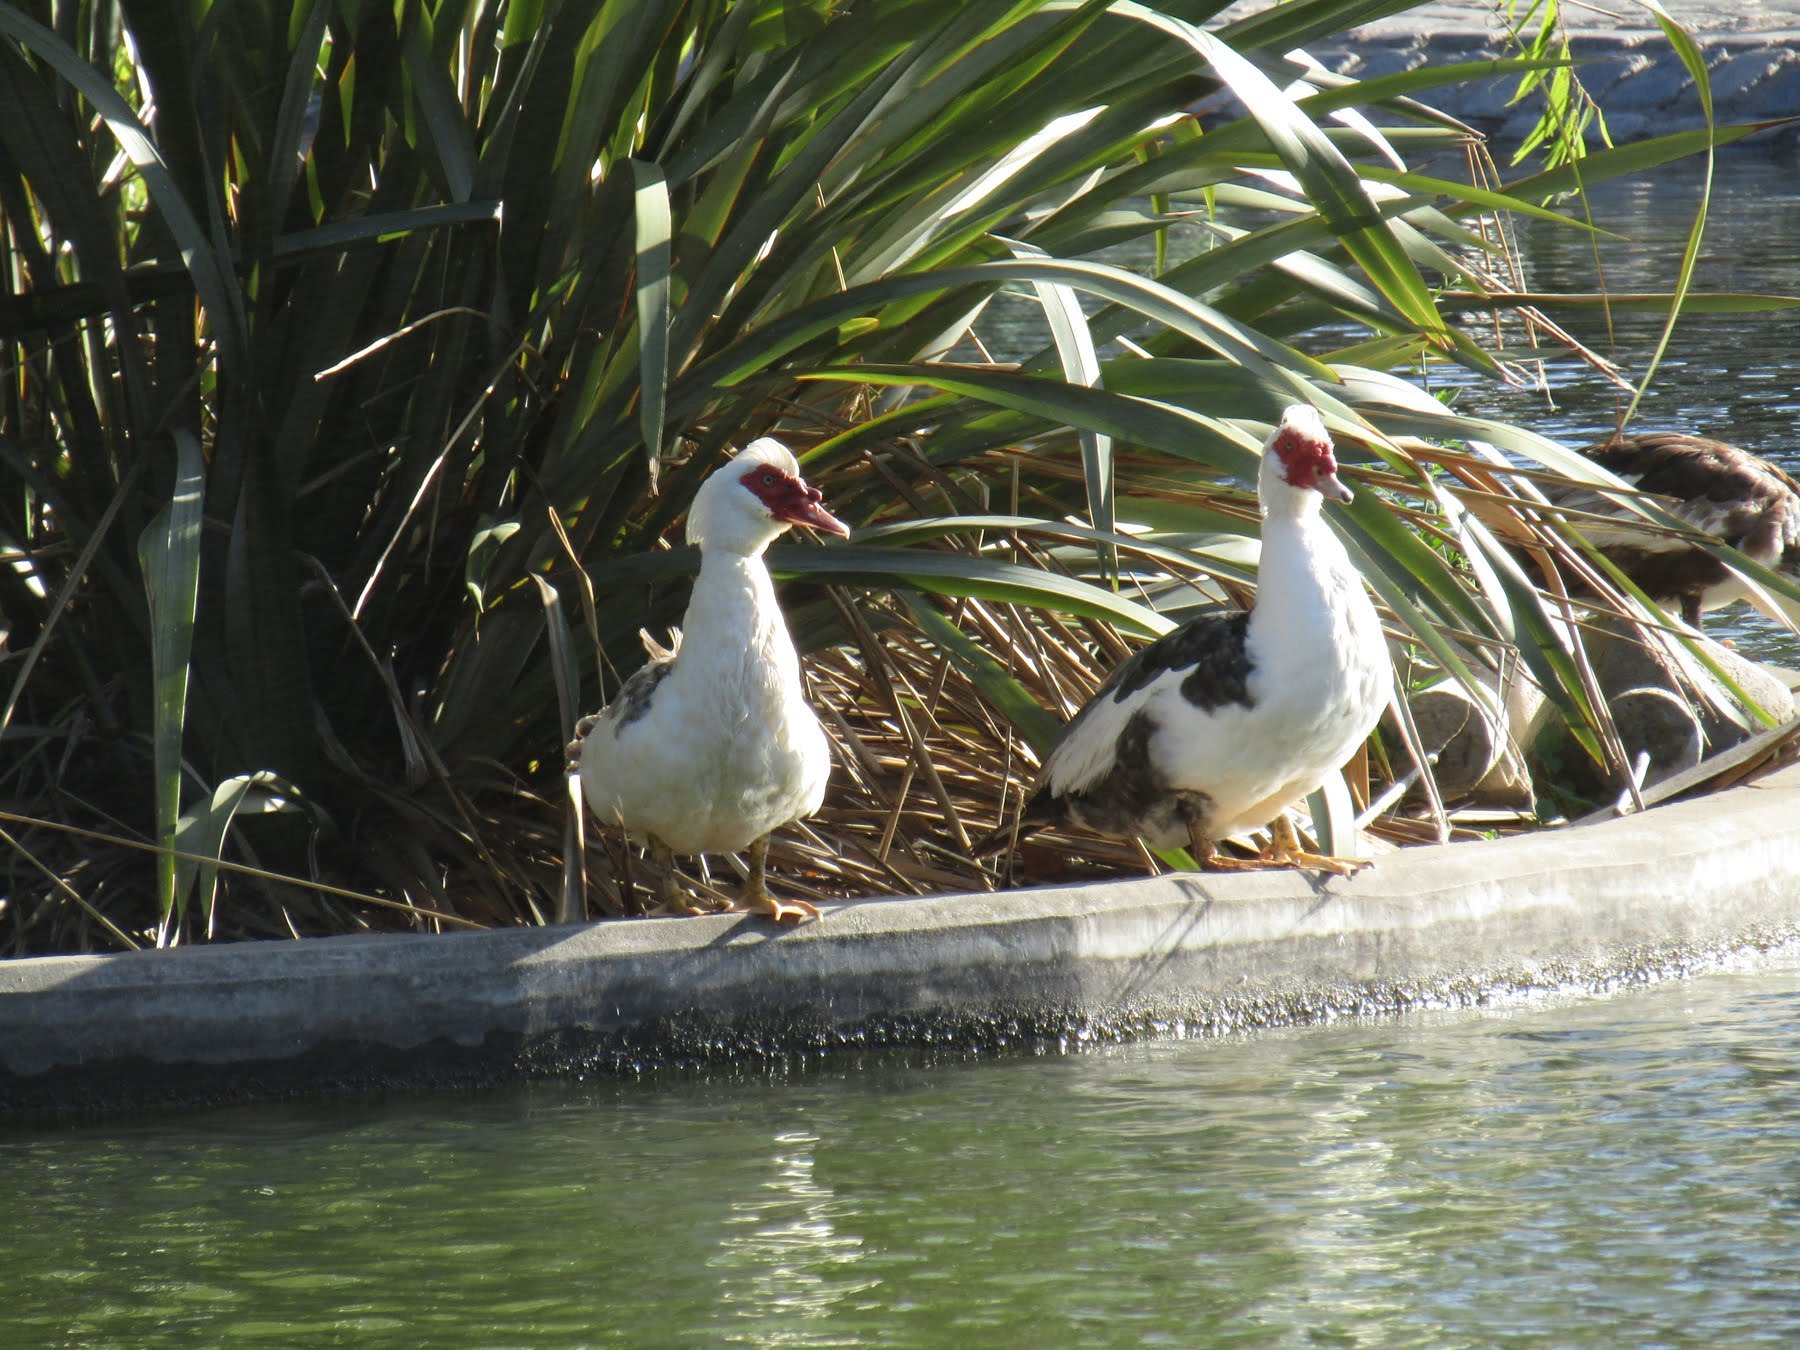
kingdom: Animalia
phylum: Chordata
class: Aves
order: Anseriformes
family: Anatidae
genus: Cairina
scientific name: Cairina moschata
